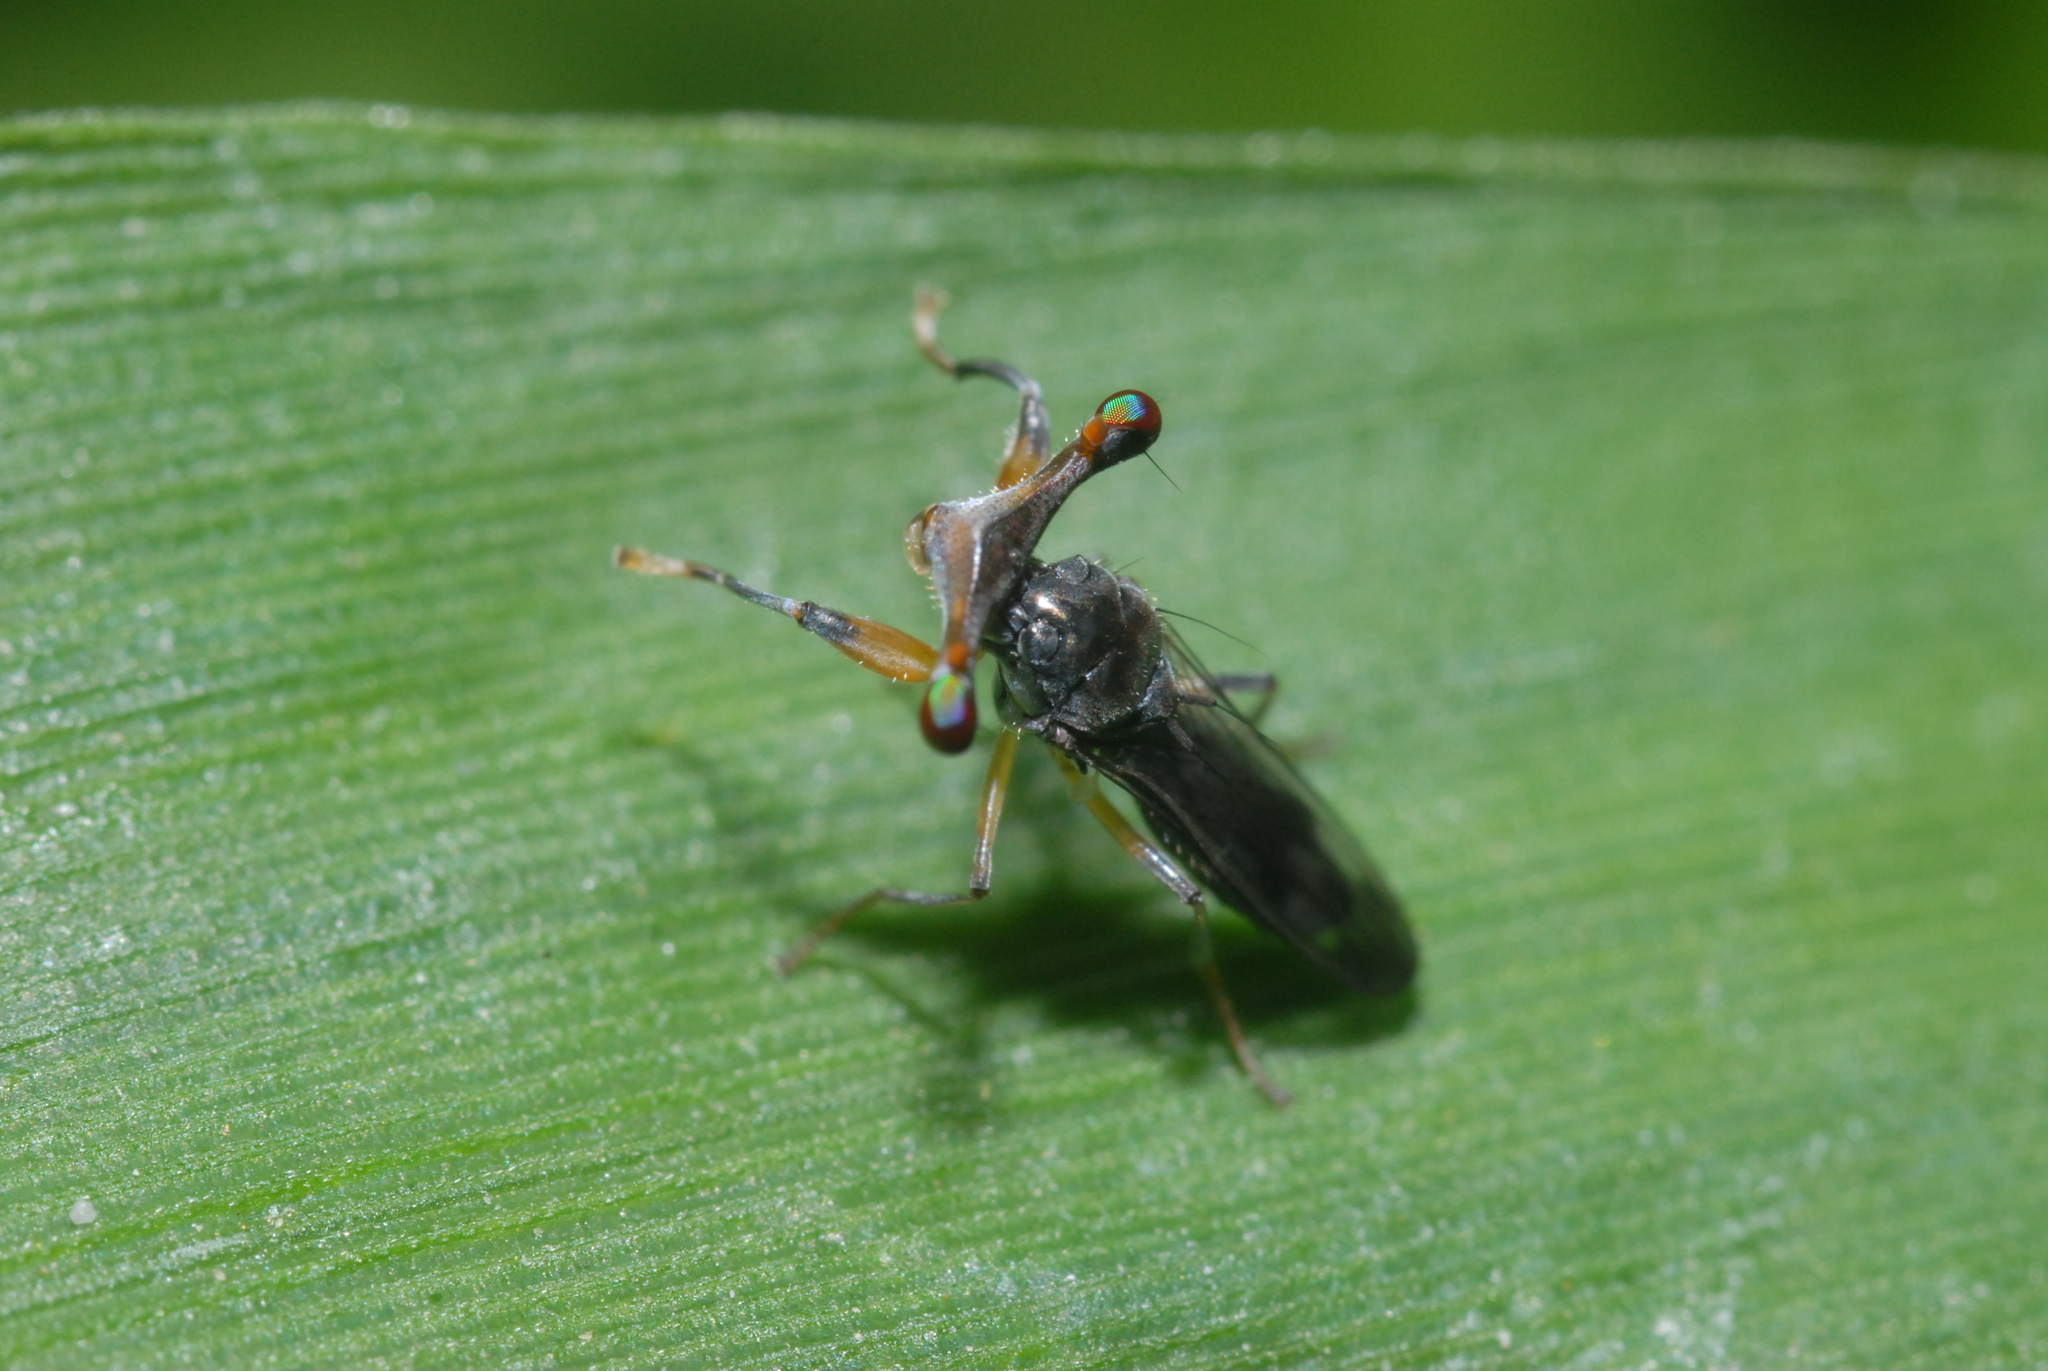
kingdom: Animalia
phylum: Arthropoda
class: Insecta
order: Diptera
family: Diopsidae
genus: Sphyracephala
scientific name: Sphyracephala
